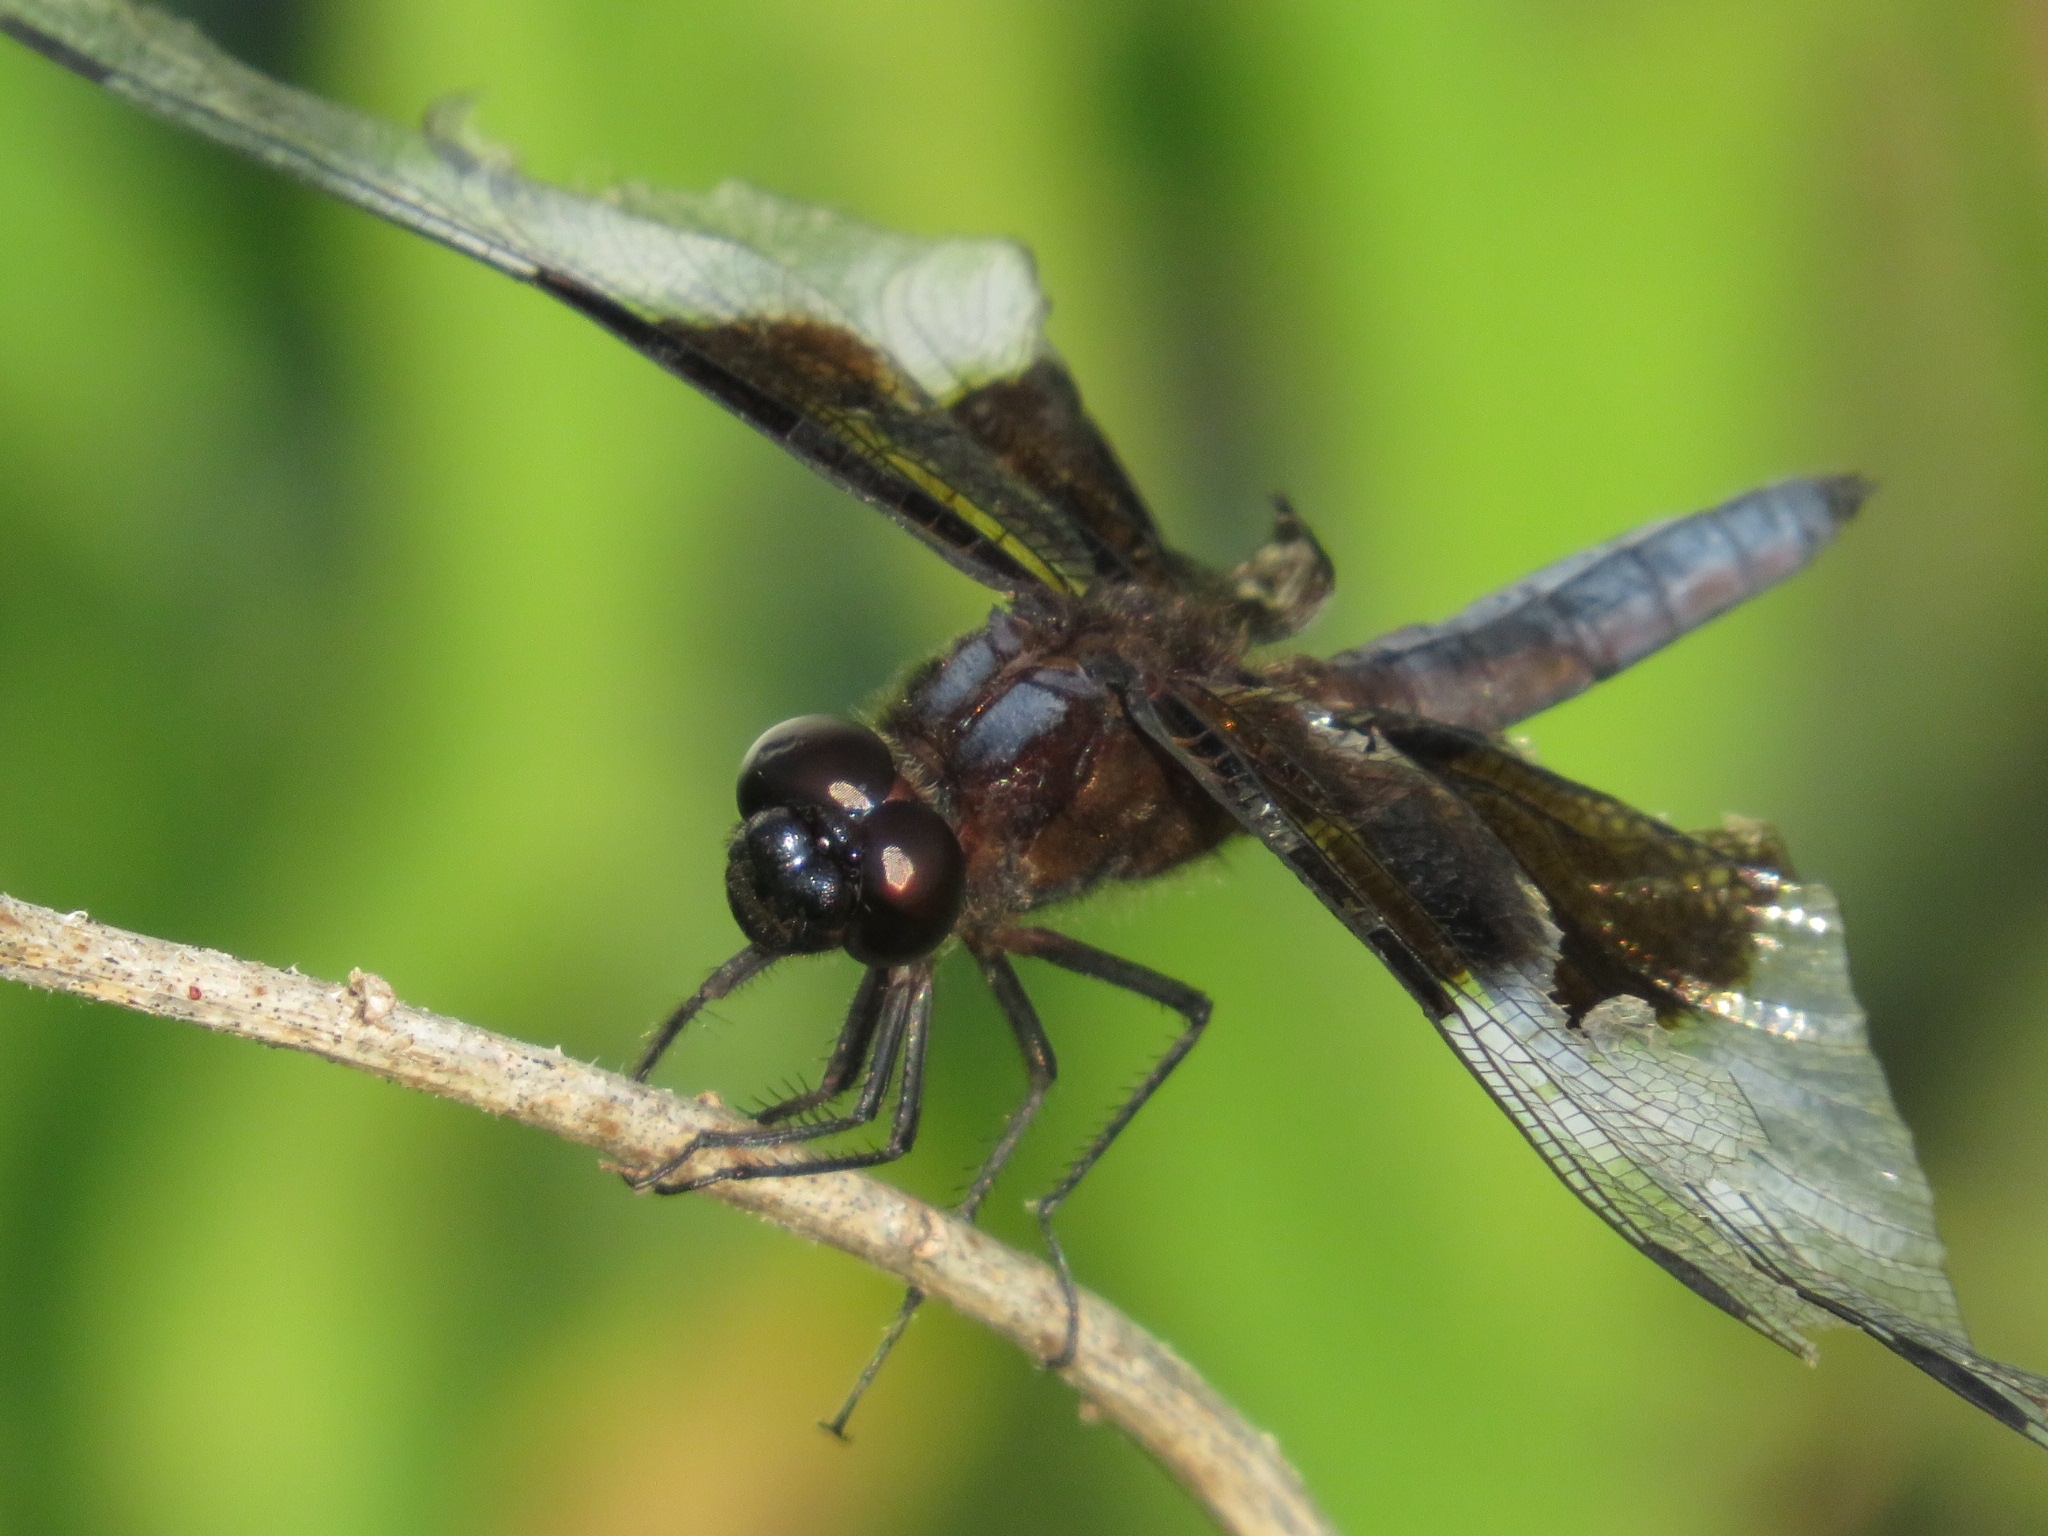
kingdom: Animalia
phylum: Arthropoda
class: Insecta
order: Odonata
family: Libellulidae
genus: Libellula
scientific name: Libellula luctuosa
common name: Widow skimmer
